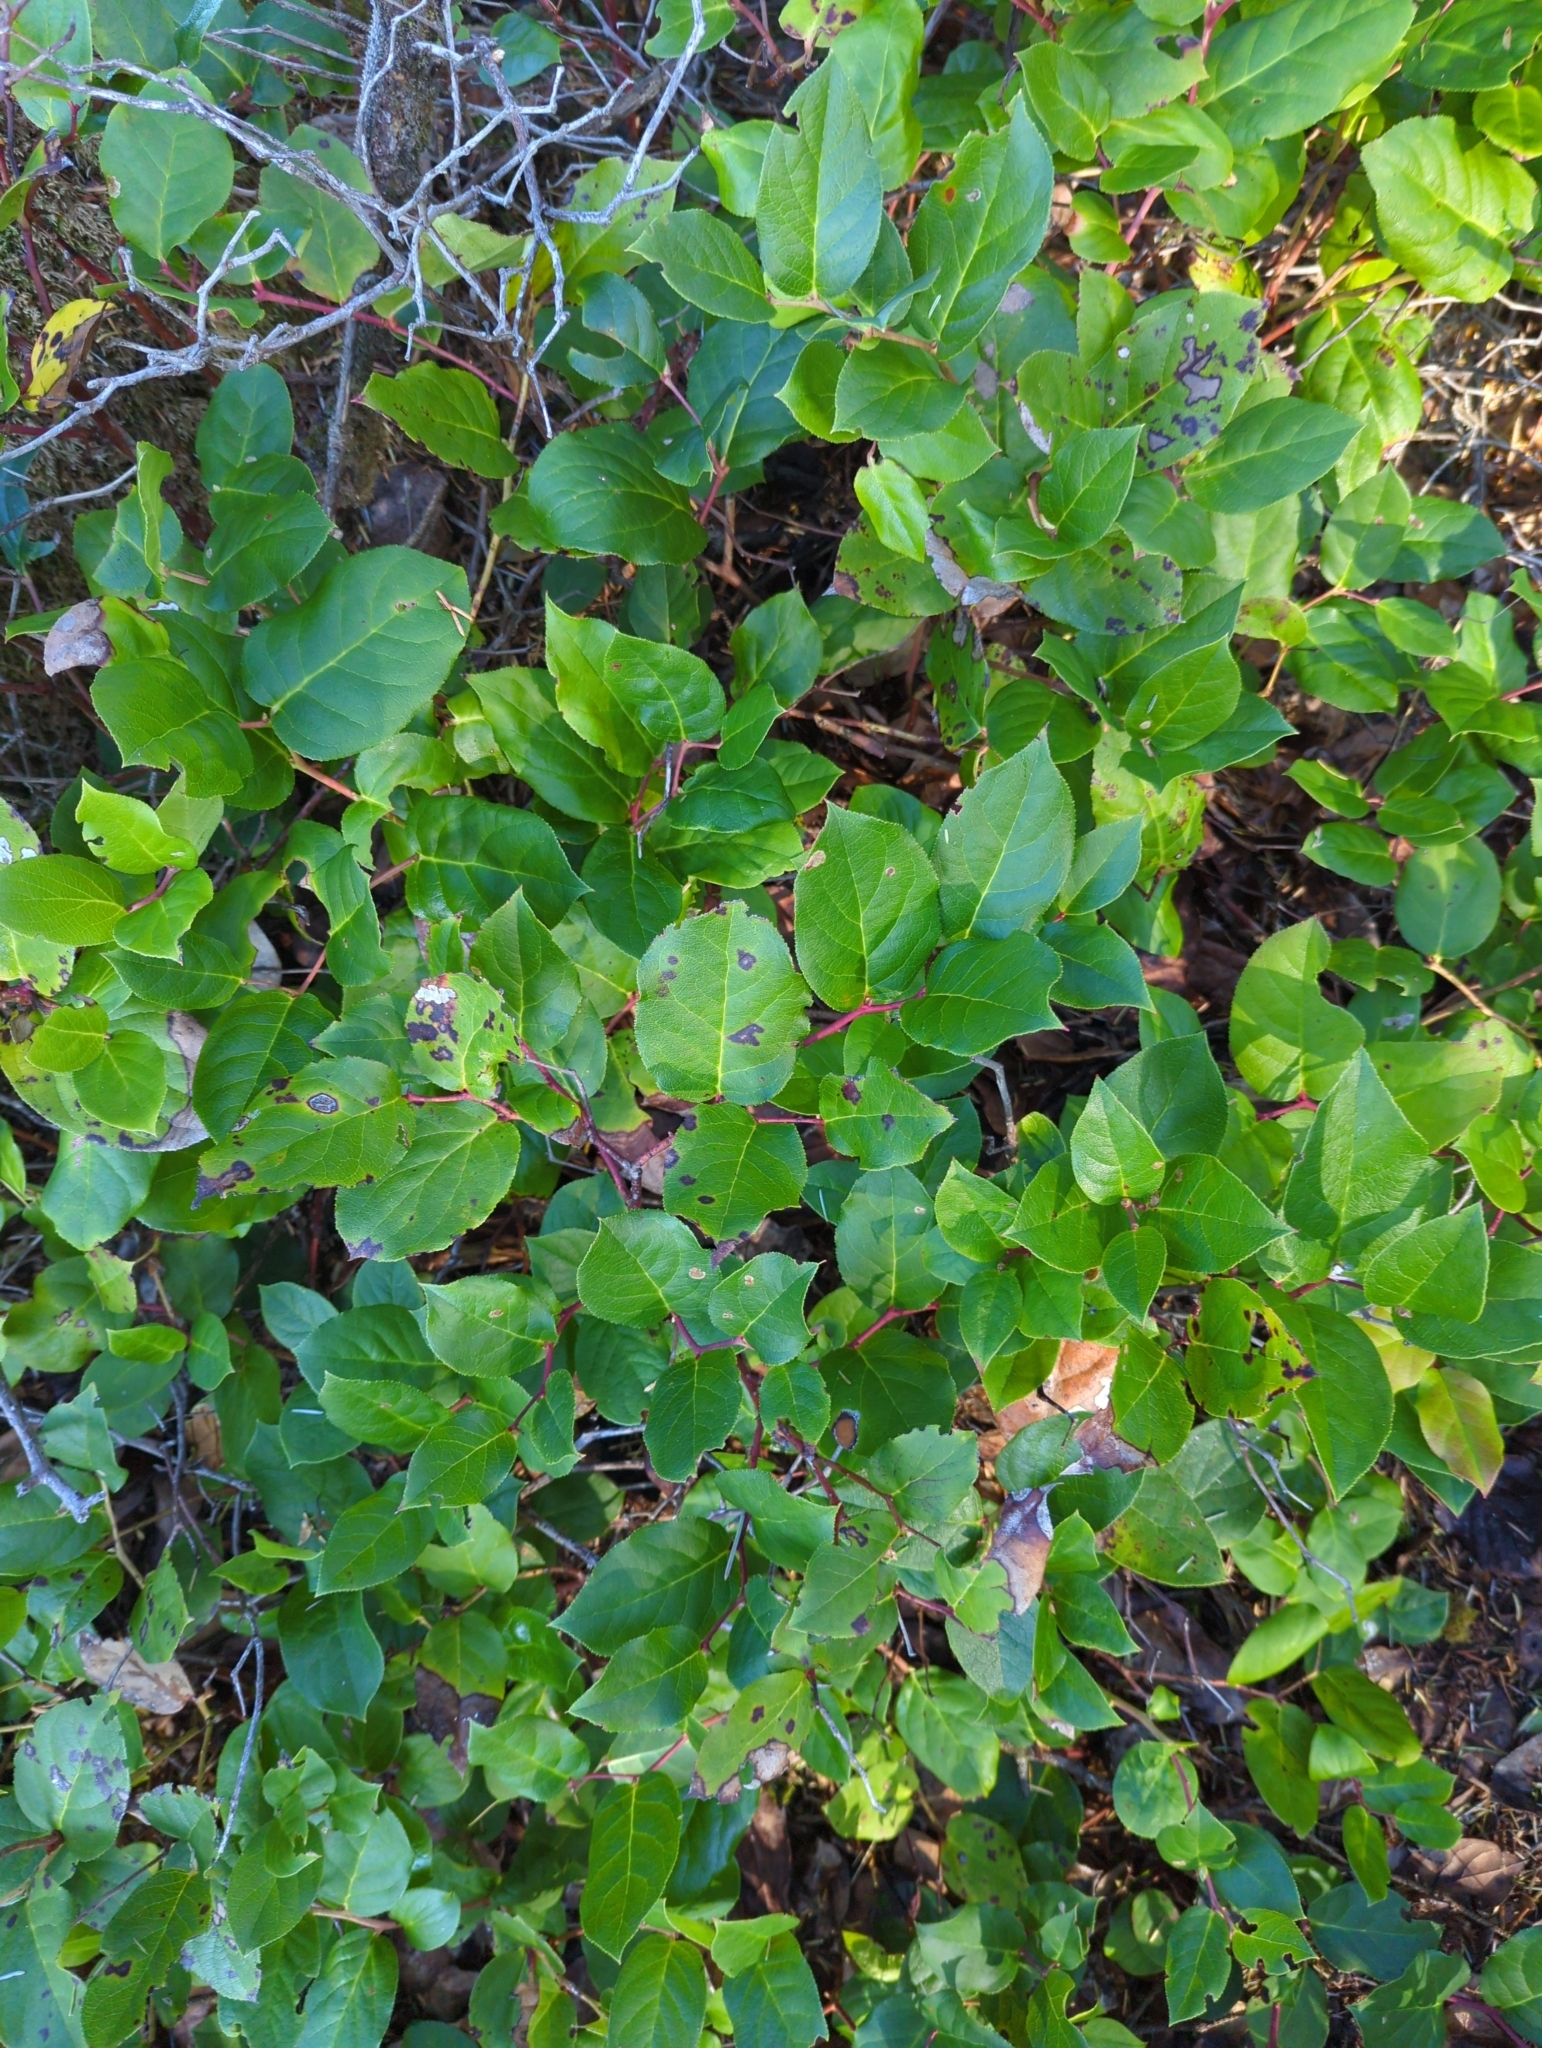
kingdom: Plantae
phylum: Tracheophyta
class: Magnoliopsida
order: Ericales
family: Ericaceae
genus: Gaultheria
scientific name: Gaultheria shallon
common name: Shallon
